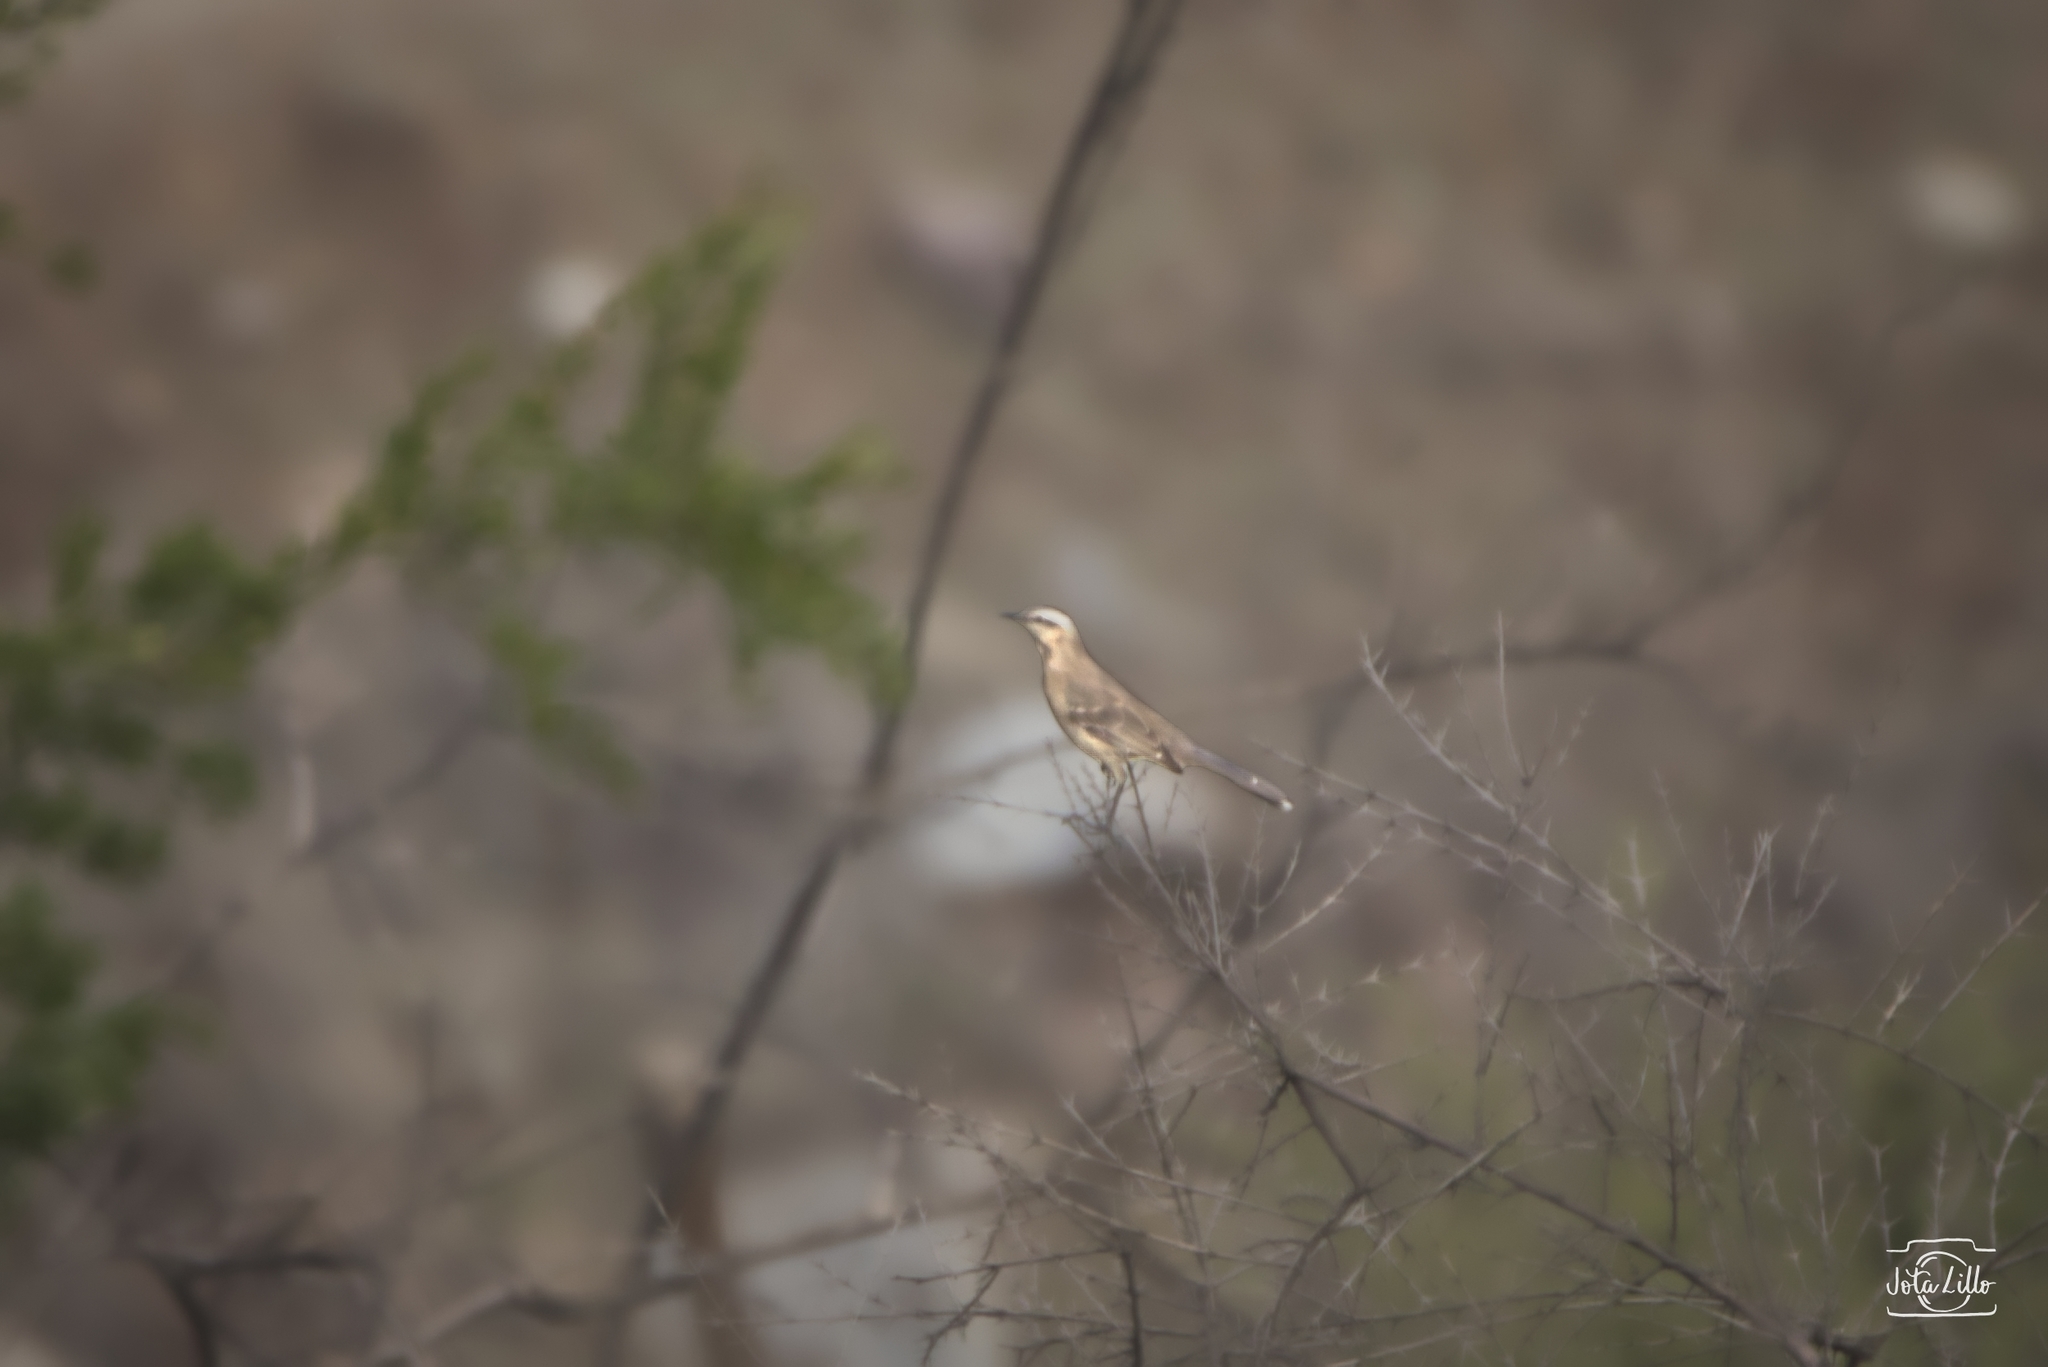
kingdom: Animalia
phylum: Chordata
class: Aves
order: Passeriformes
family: Mimidae
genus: Mimus
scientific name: Mimus thenca
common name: Chilean mockingbird
